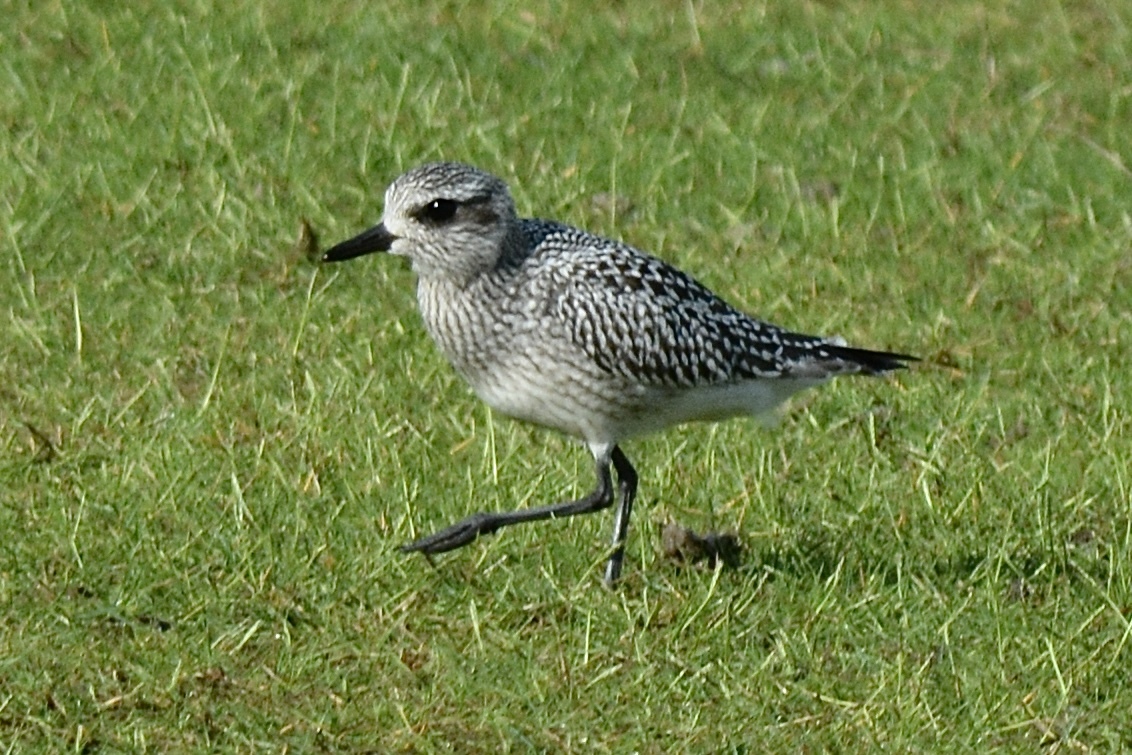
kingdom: Animalia
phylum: Chordata
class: Aves
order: Charadriiformes
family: Charadriidae
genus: Pluvialis
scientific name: Pluvialis squatarola
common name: Grey plover
